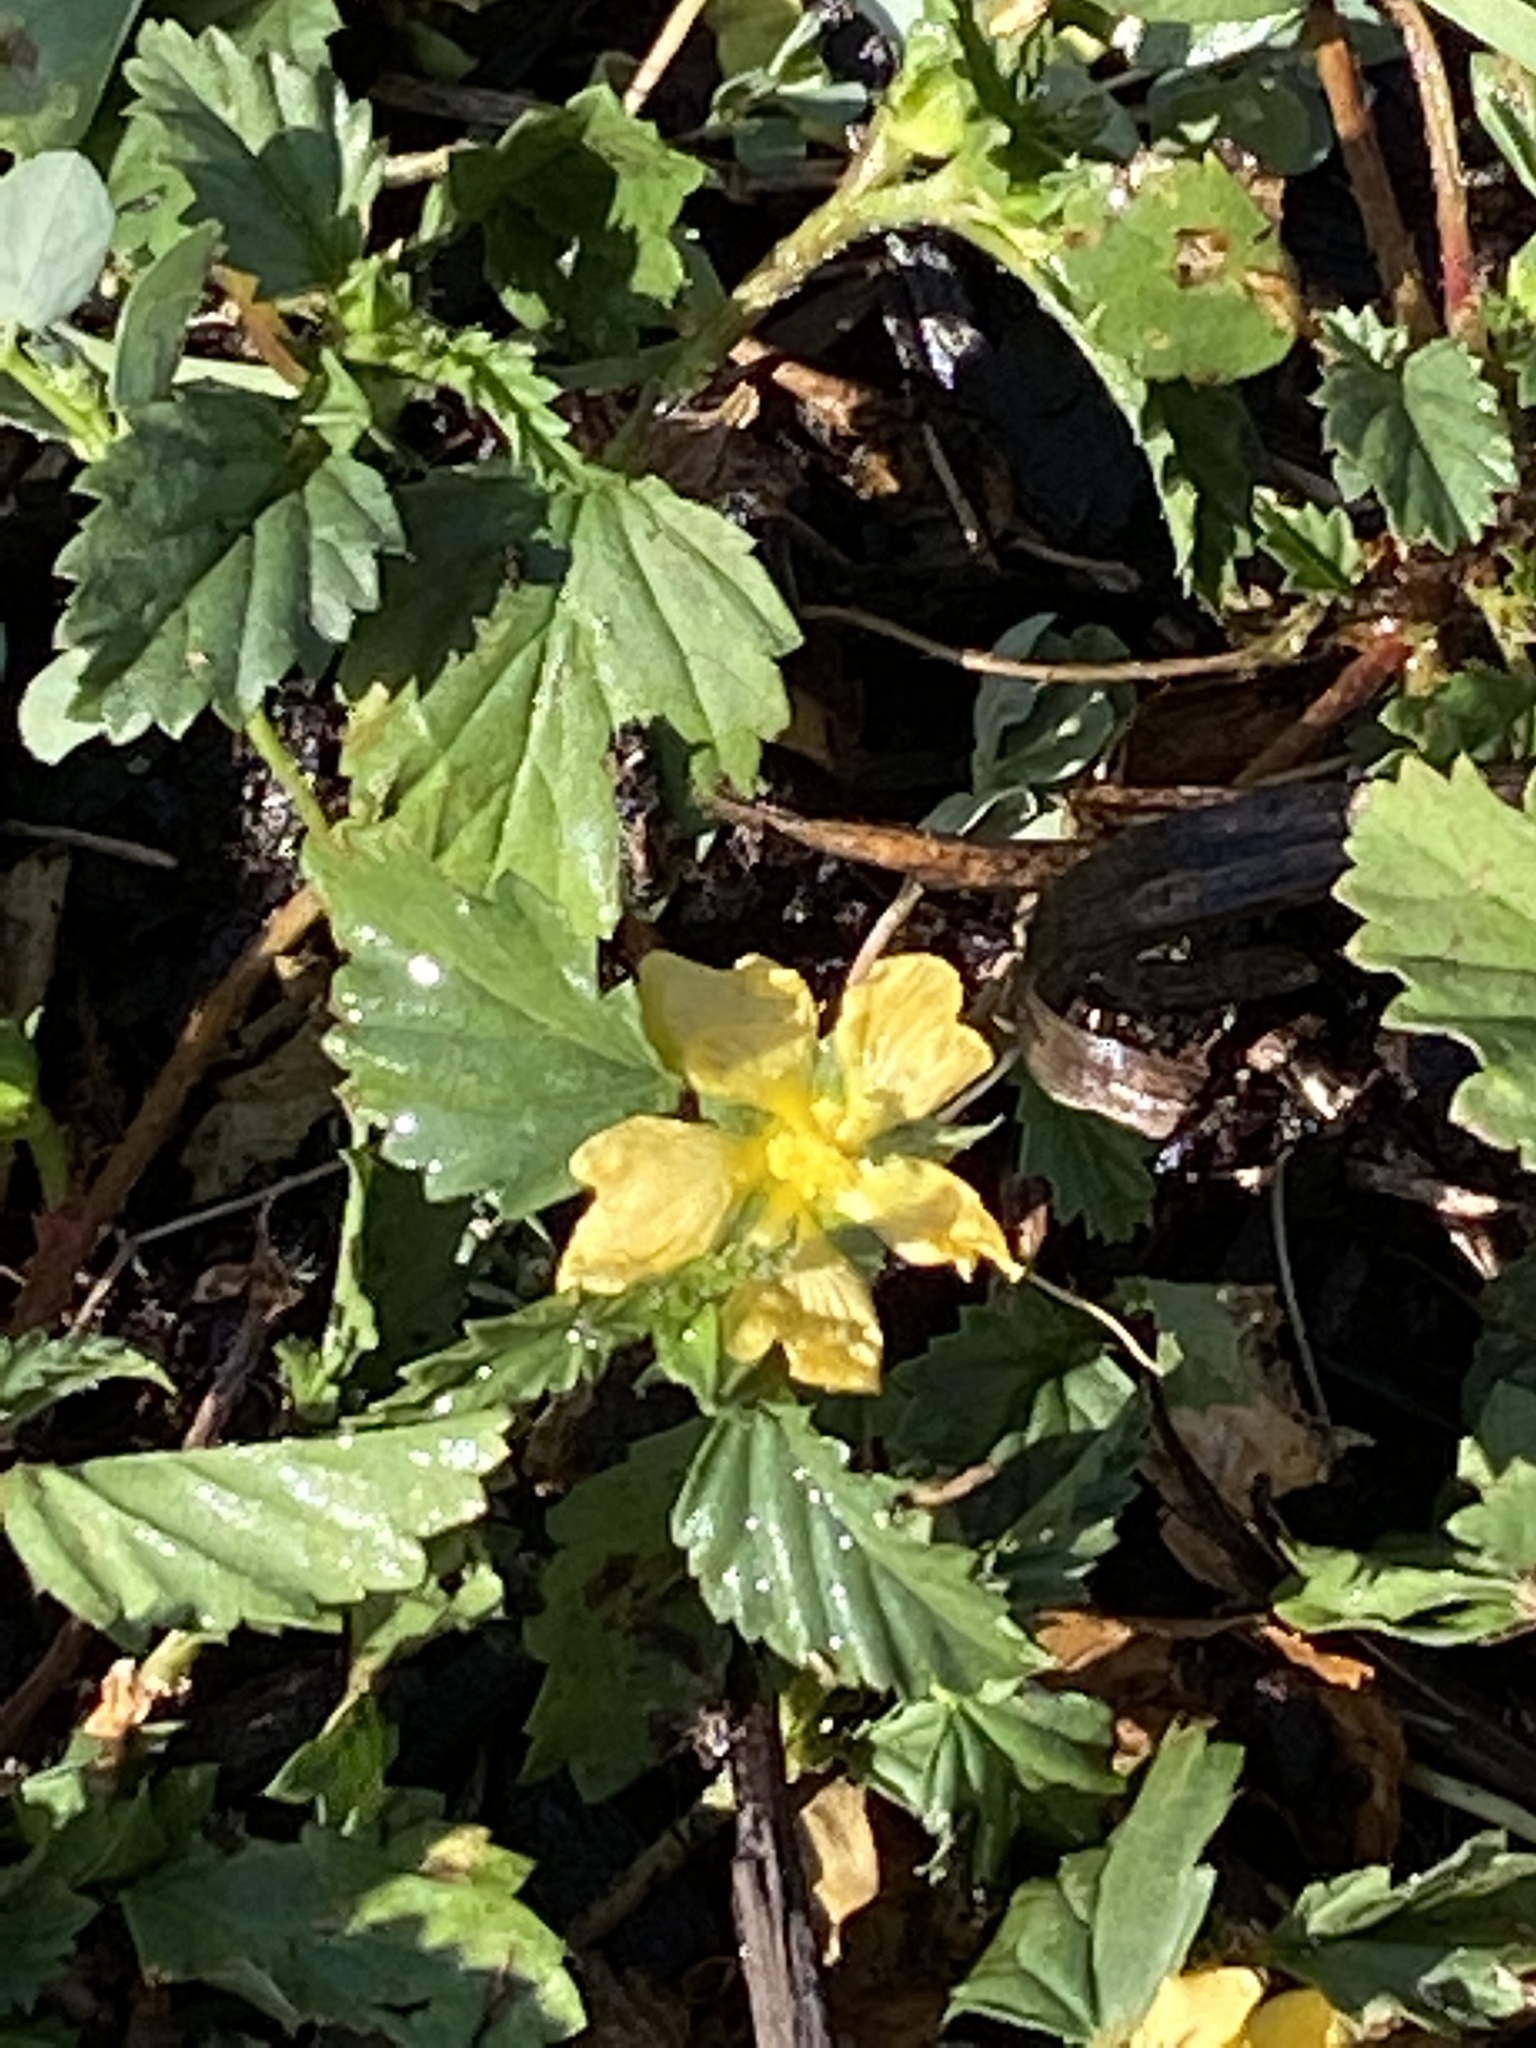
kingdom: Plantae
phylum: Tracheophyta
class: Magnoliopsida
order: Malvales
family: Malvaceae
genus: Malvastrum
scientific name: Malvastrum coromandelianum
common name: Threelobe false mallow
